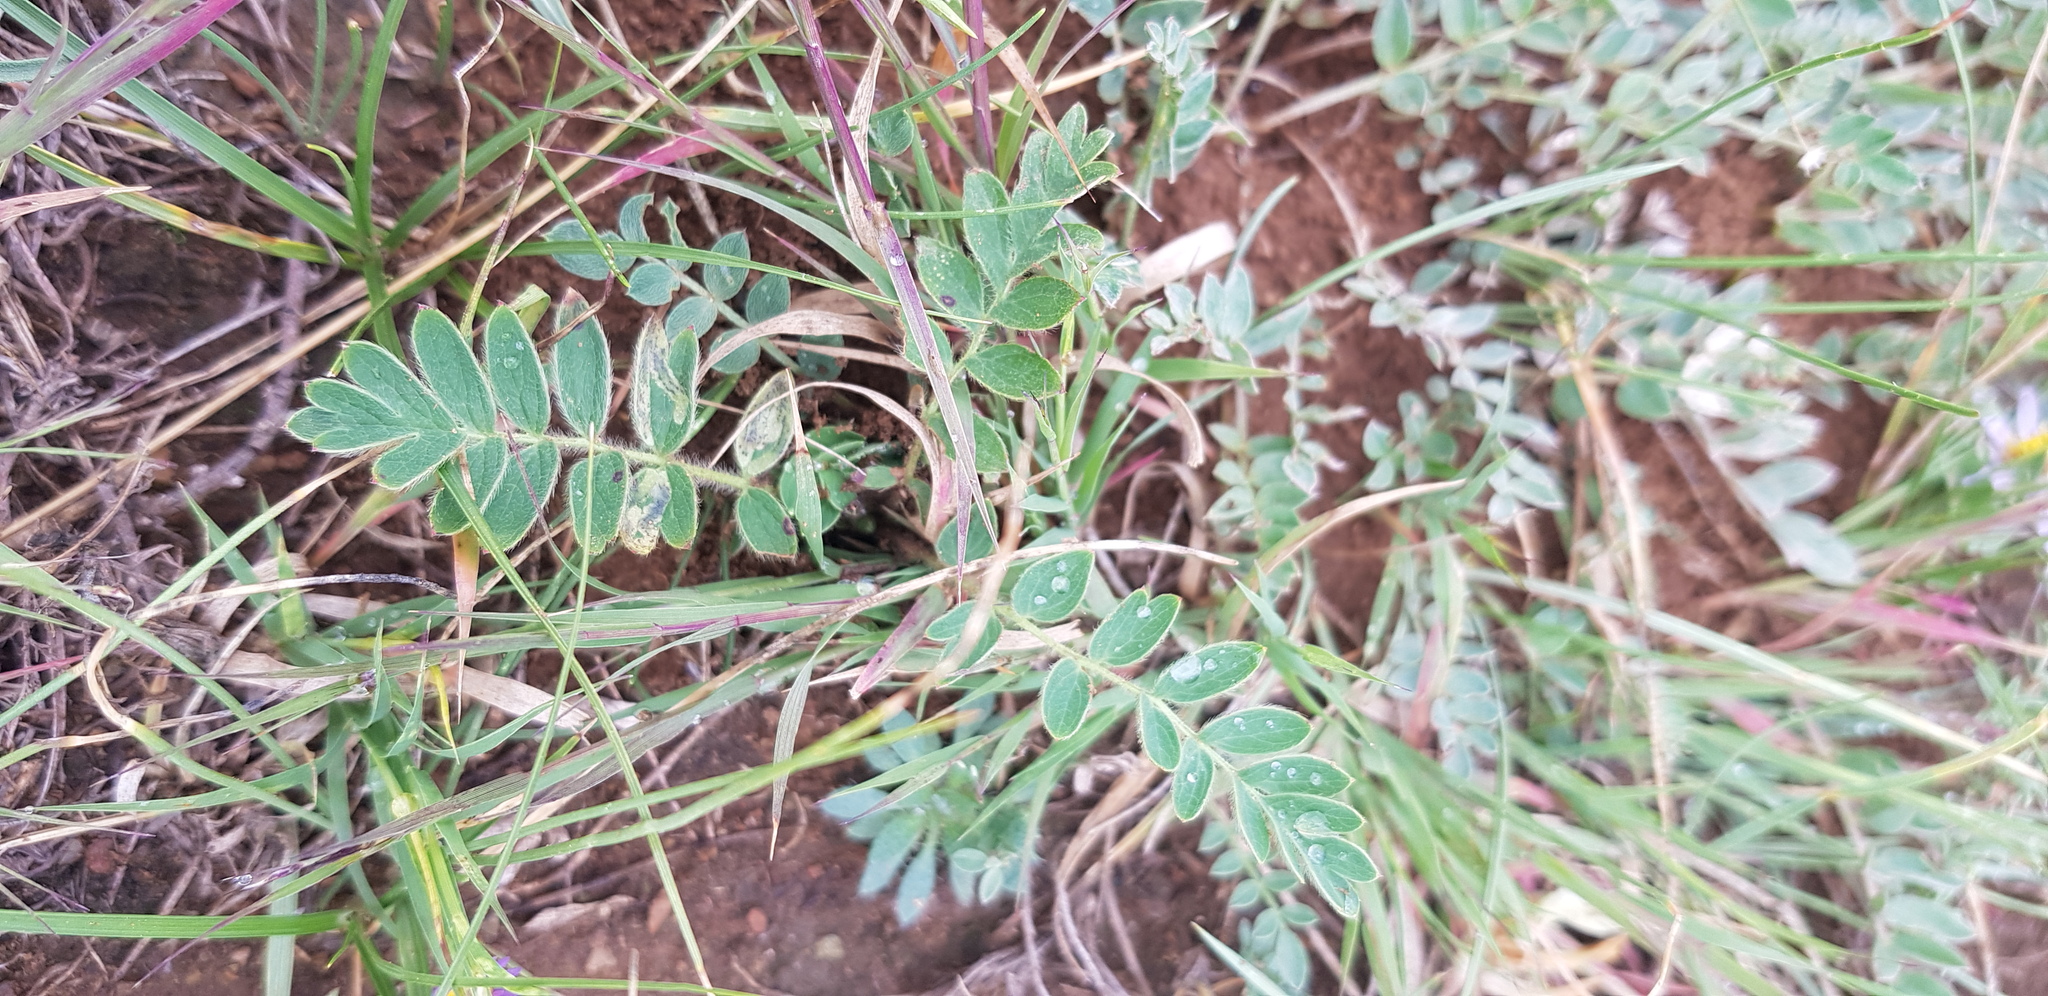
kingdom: Plantae
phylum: Tracheophyta
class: Magnoliopsida
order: Rosales
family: Rosaceae
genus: Sibbaldianthe
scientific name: Sibbaldianthe bifurca
